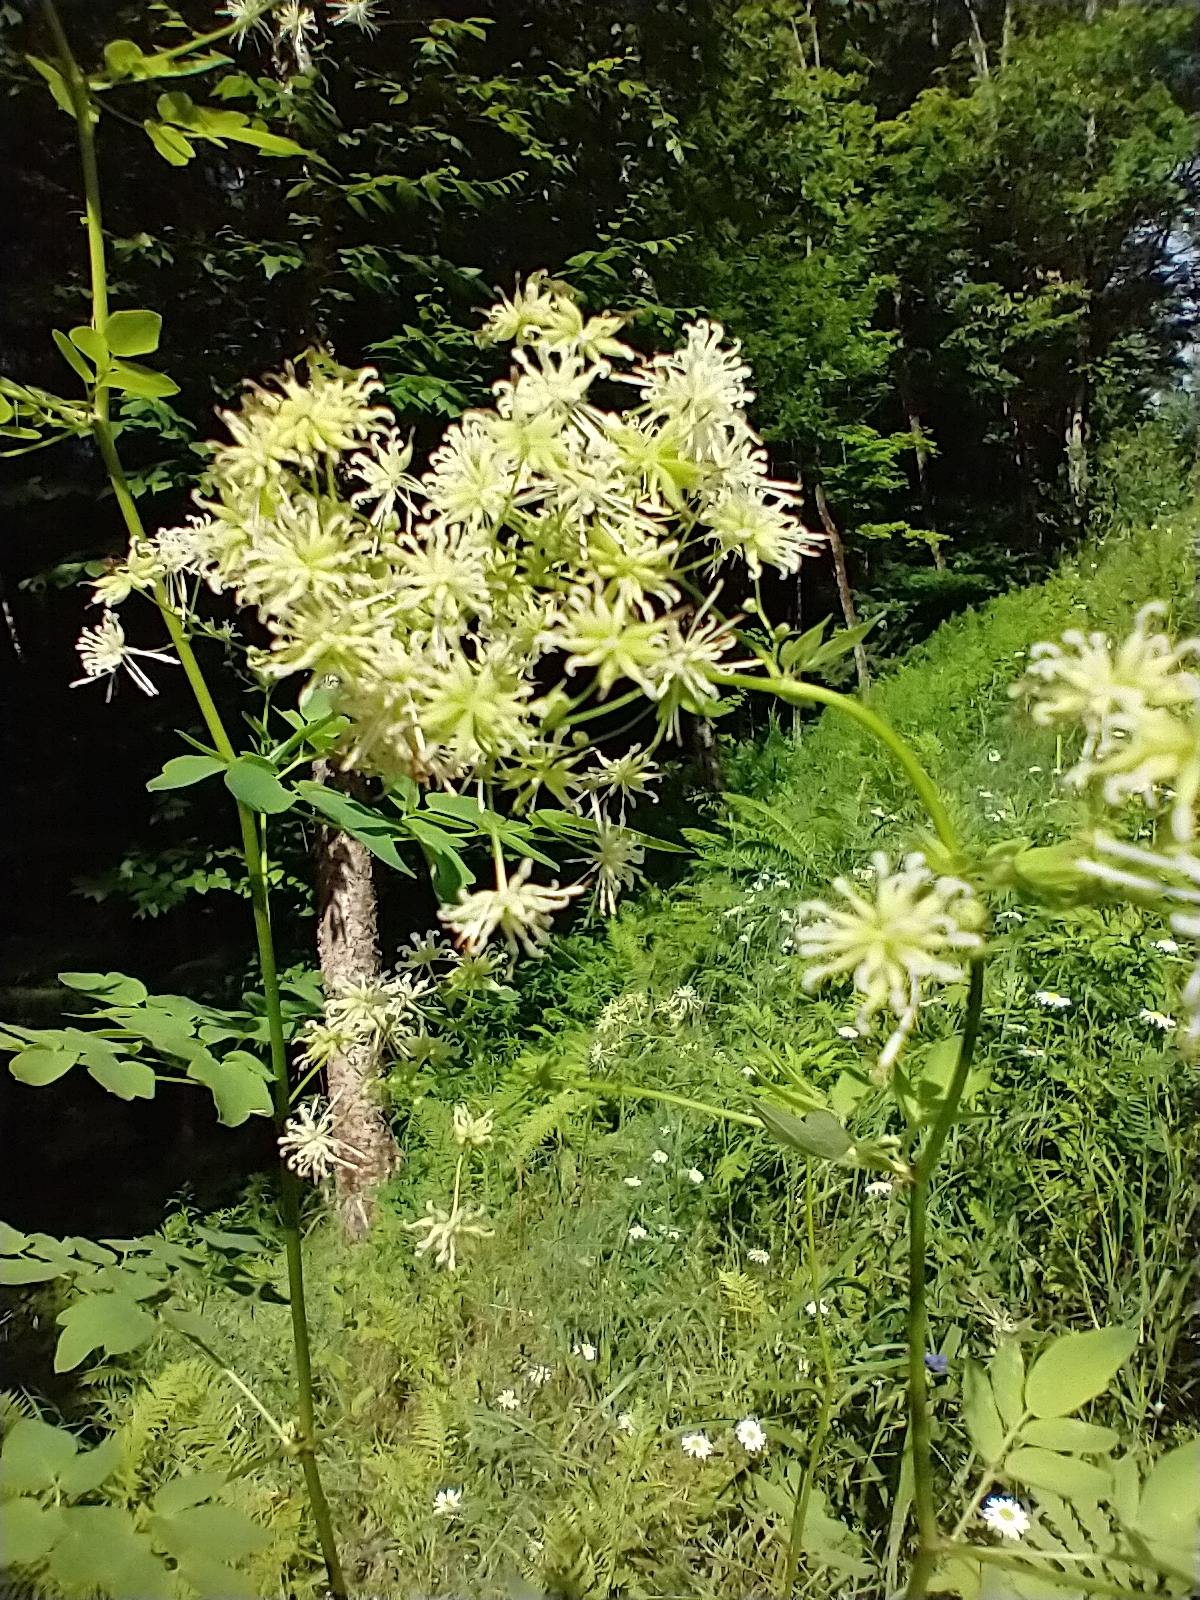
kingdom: Plantae
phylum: Tracheophyta
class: Magnoliopsida
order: Ranunculales
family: Ranunculaceae
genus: Thalictrum
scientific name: Thalictrum pubescens
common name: King-of-the-meadow
